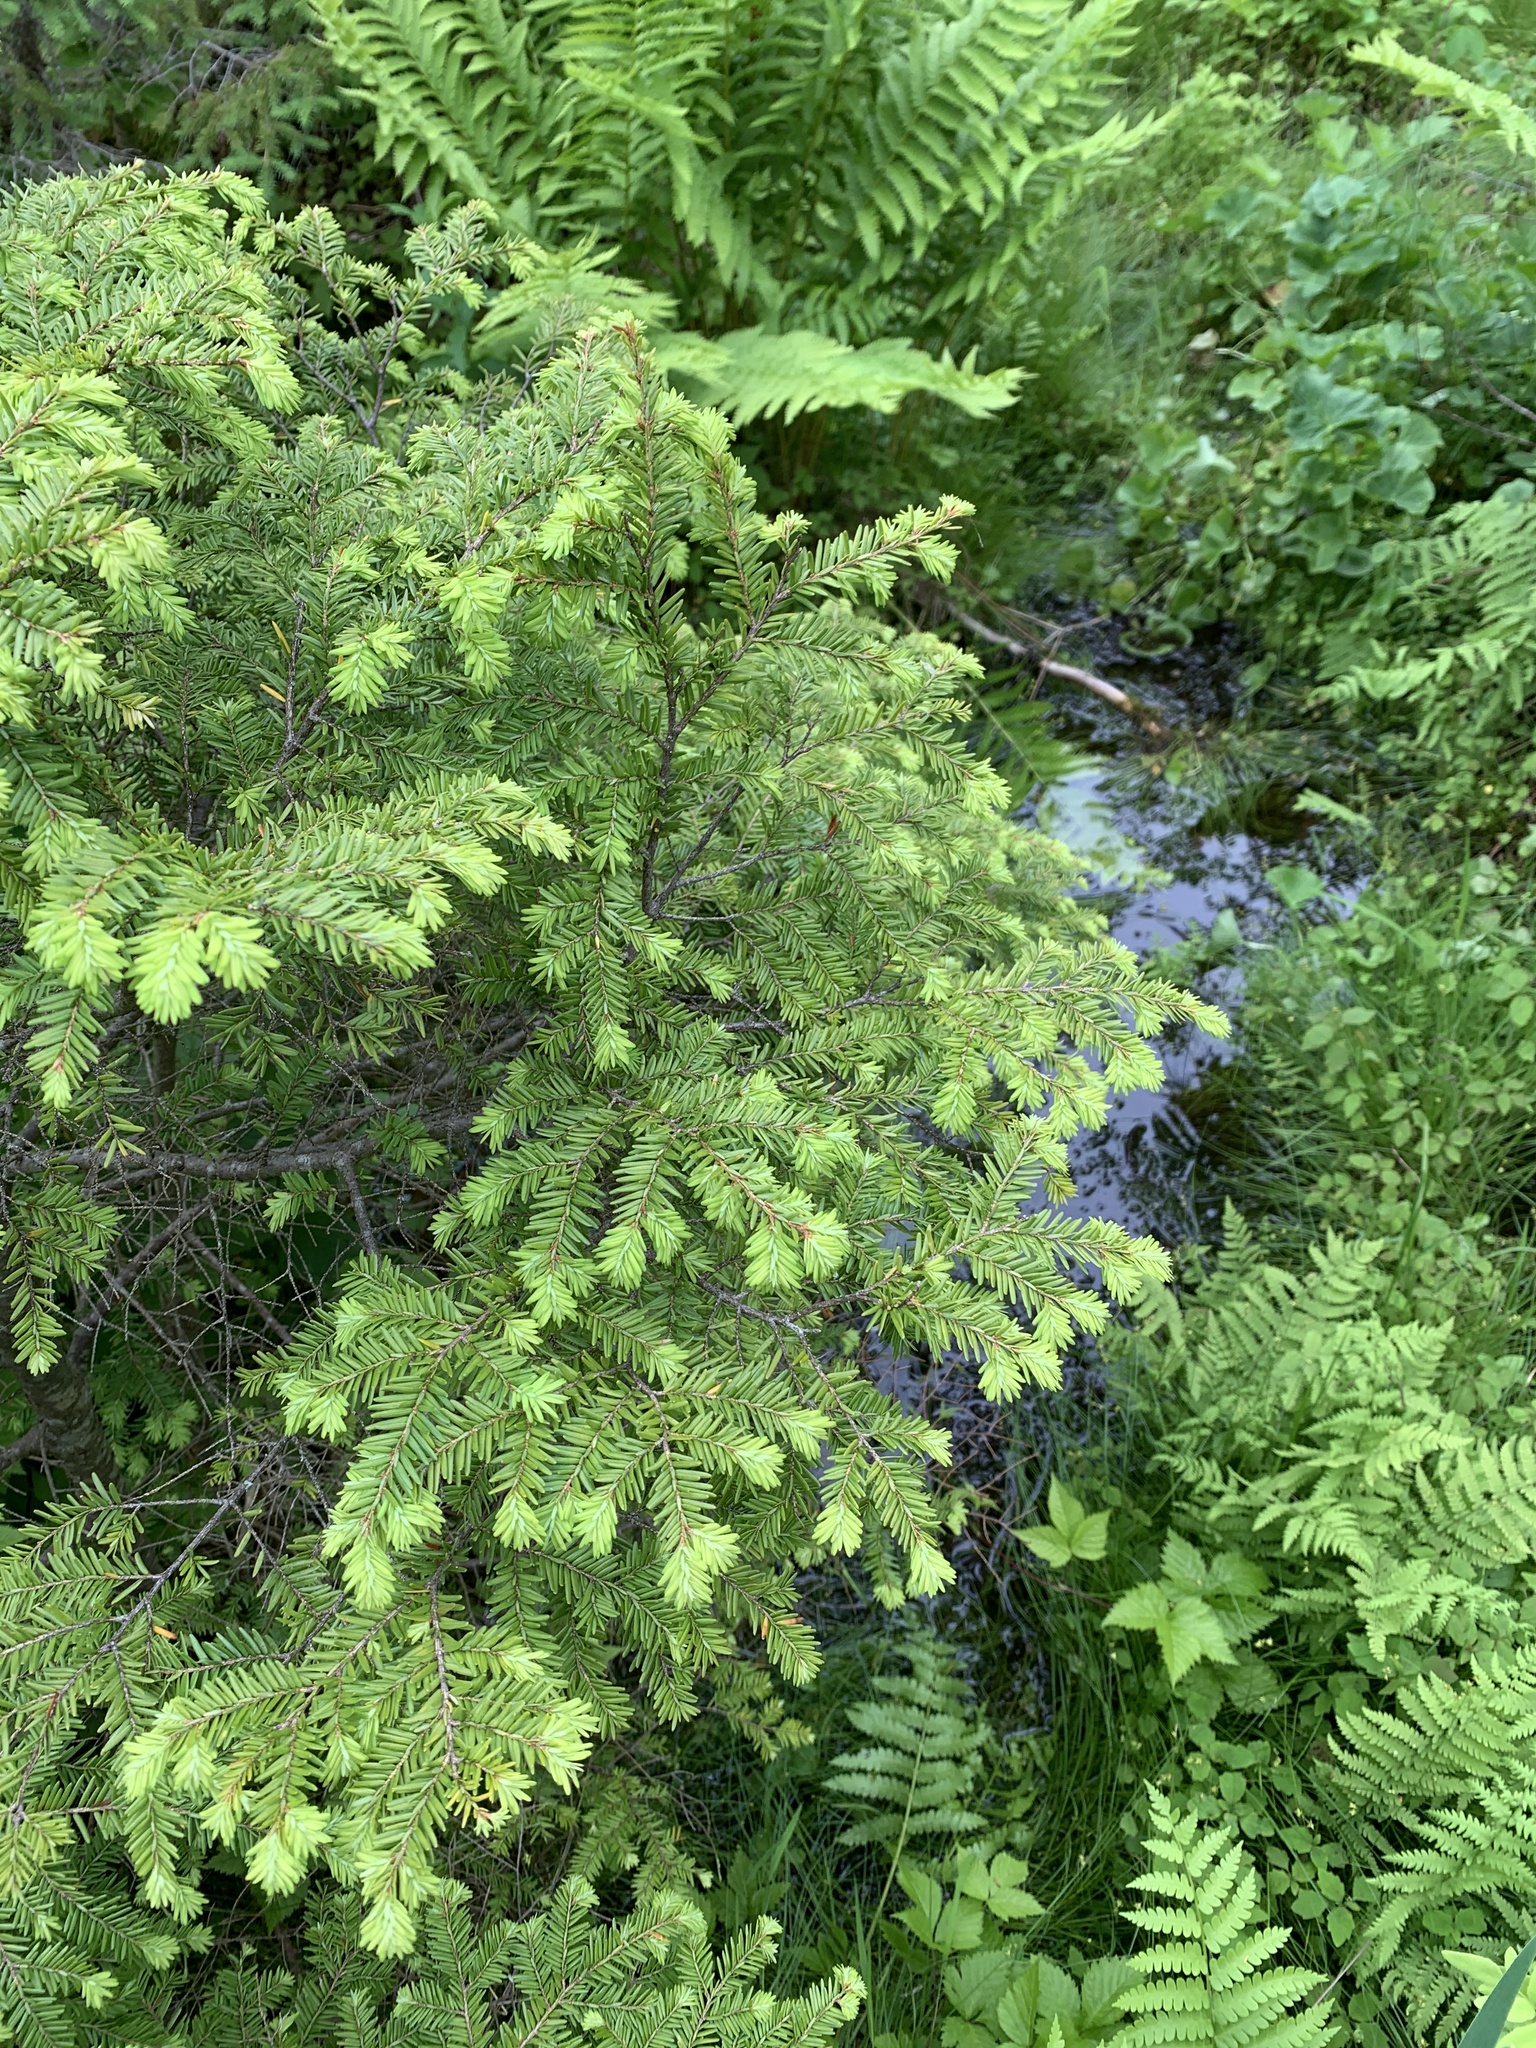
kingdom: Plantae
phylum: Tracheophyta
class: Pinopsida
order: Pinales
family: Pinaceae
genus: Tsuga
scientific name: Tsuga canadensis
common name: Eastern hemlock
